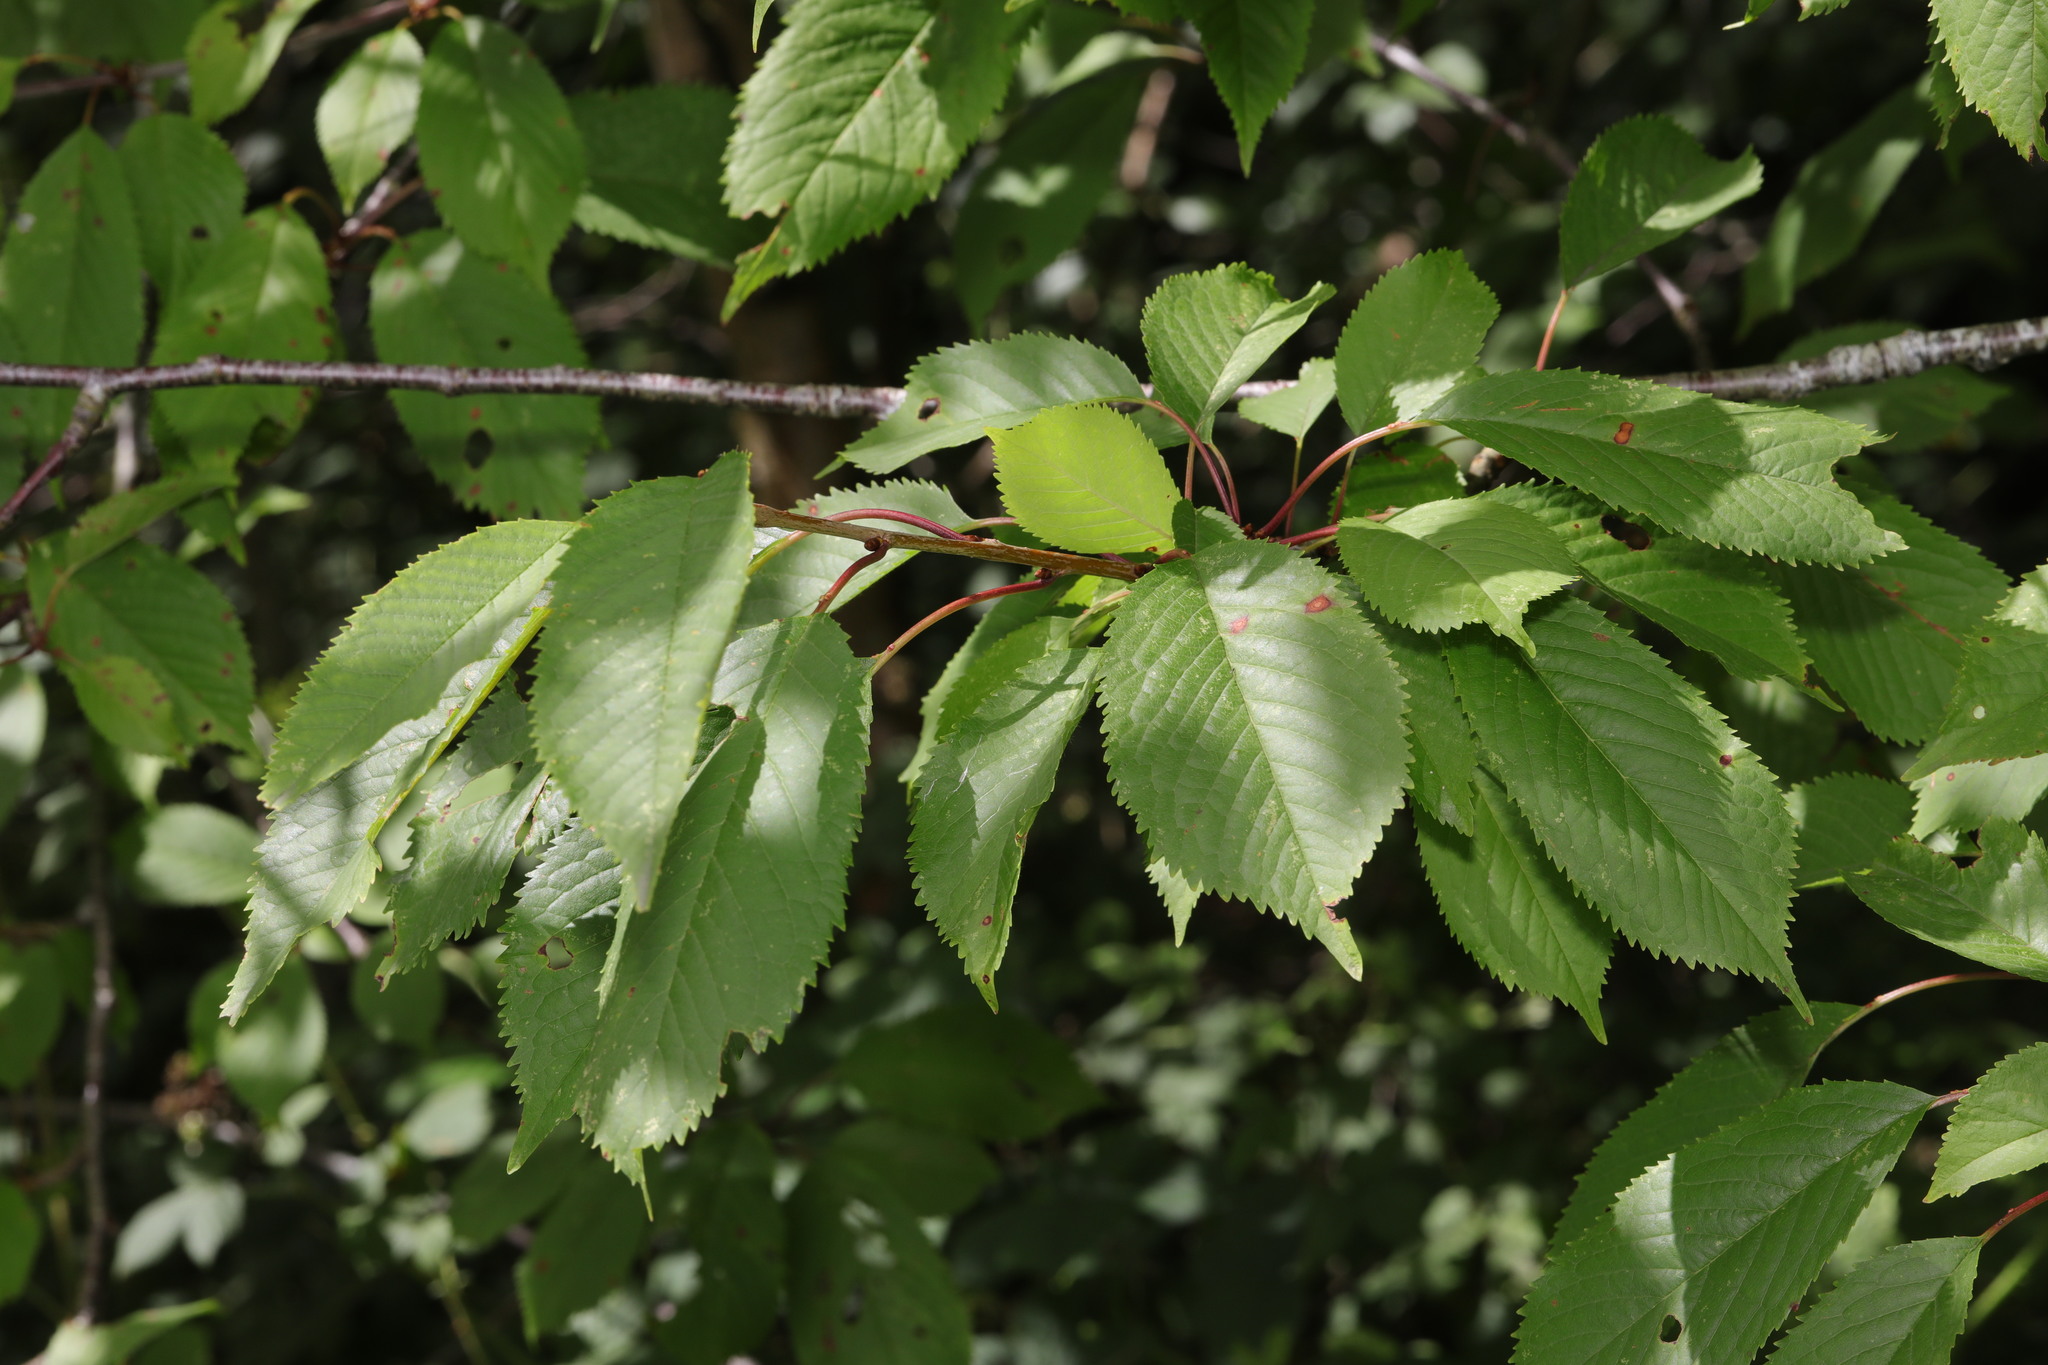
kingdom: Plantae
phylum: Tracheophyta
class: Magnoliopsida
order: Rosales
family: Rosaceae
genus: Prunus
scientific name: Prunus avium
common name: Sweet cherry
